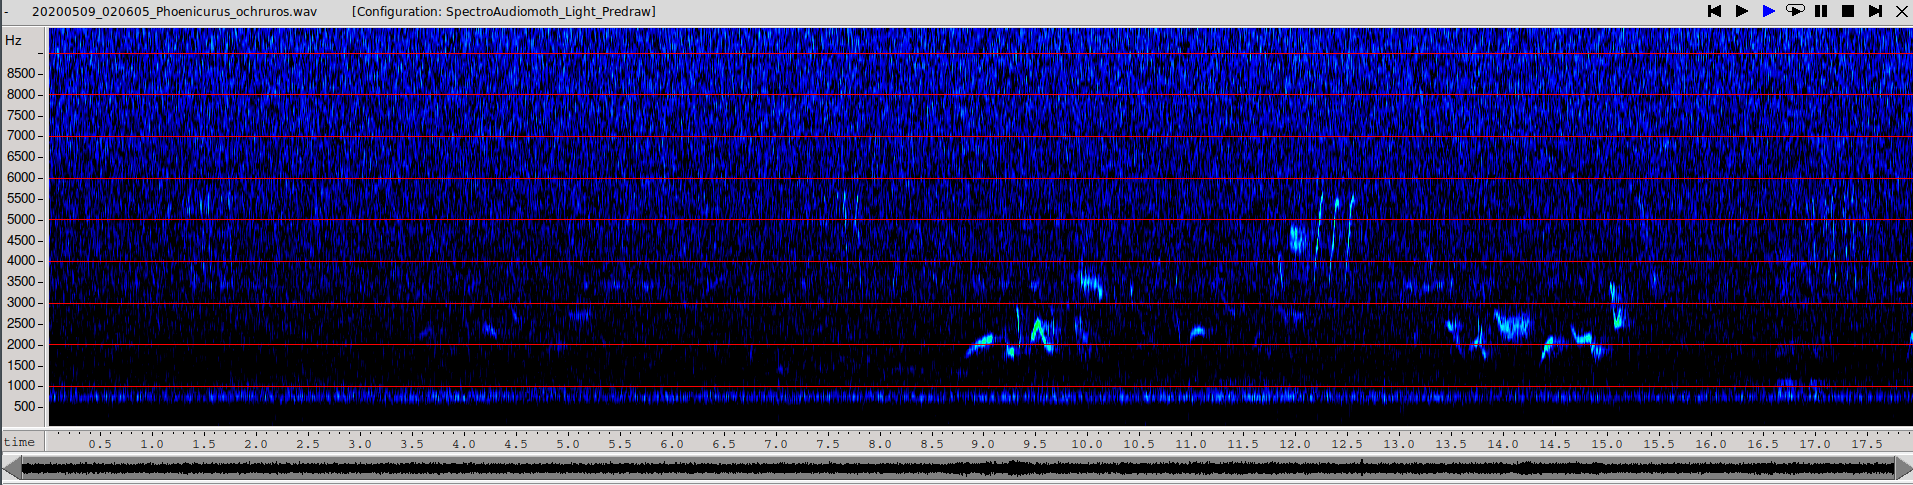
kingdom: Animalia
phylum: Chordata
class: Aves
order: Passeriformes
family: Muscicapidae
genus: Phoenicurus
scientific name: Phoenicurus ochruros
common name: Black redstart
